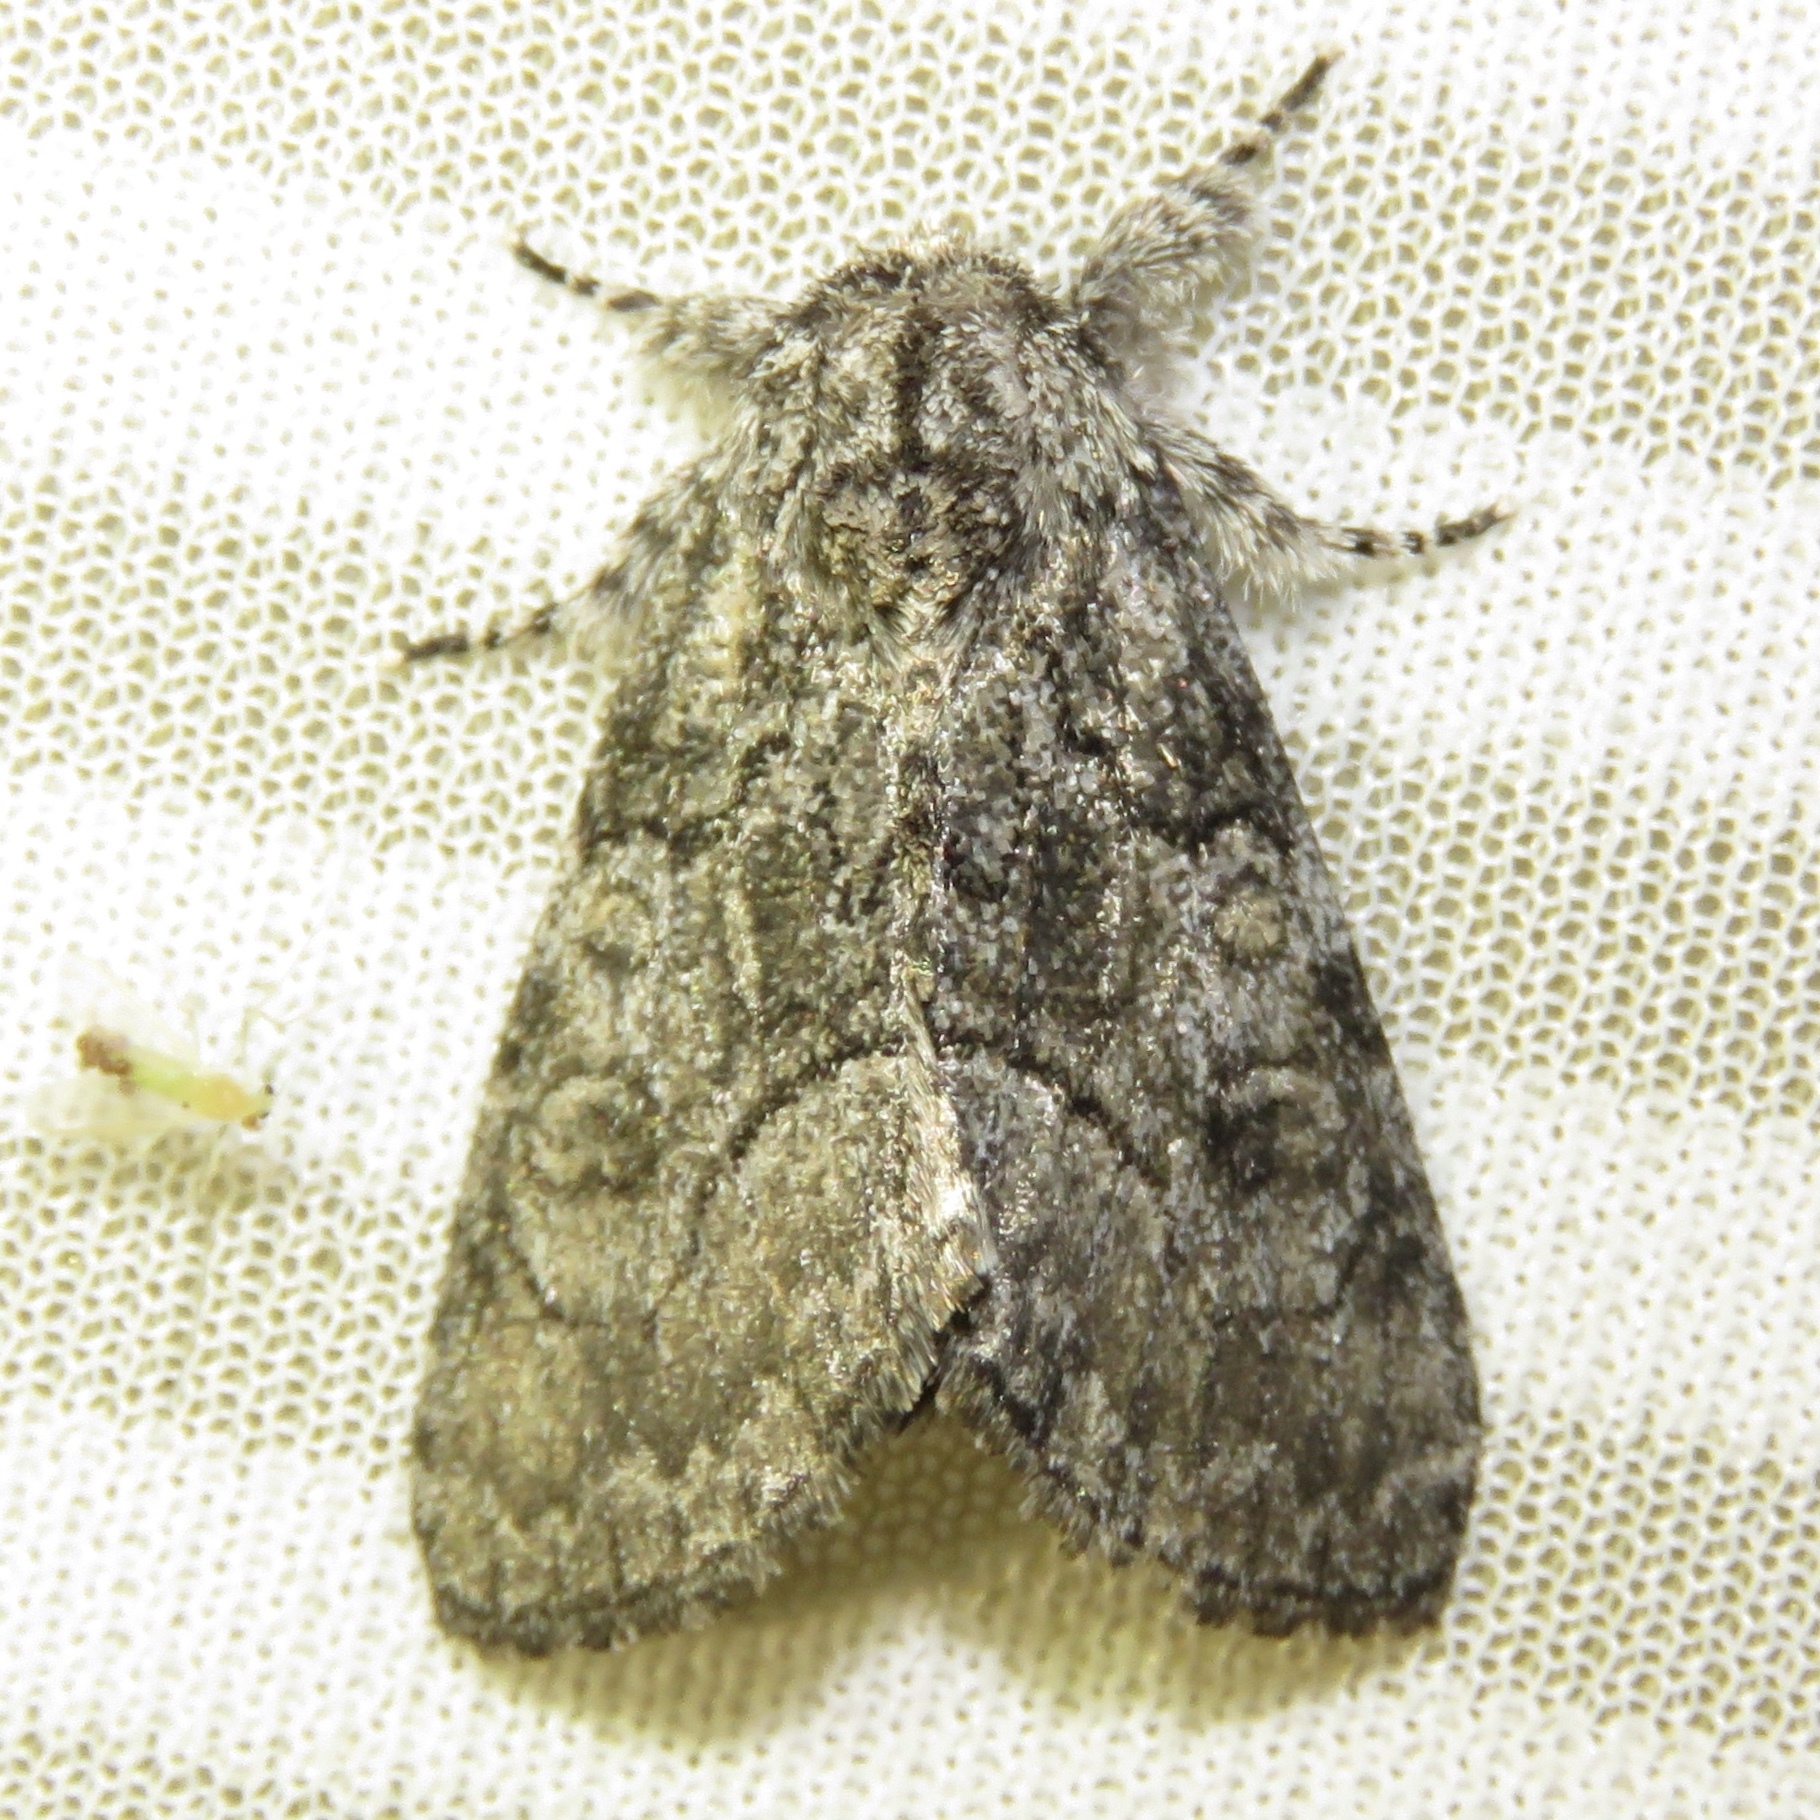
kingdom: Animalia
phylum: Arthropoda
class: Insecta
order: Lepidoptera
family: Noctuidae
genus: Raphia
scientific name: Raphia frater
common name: Brother
